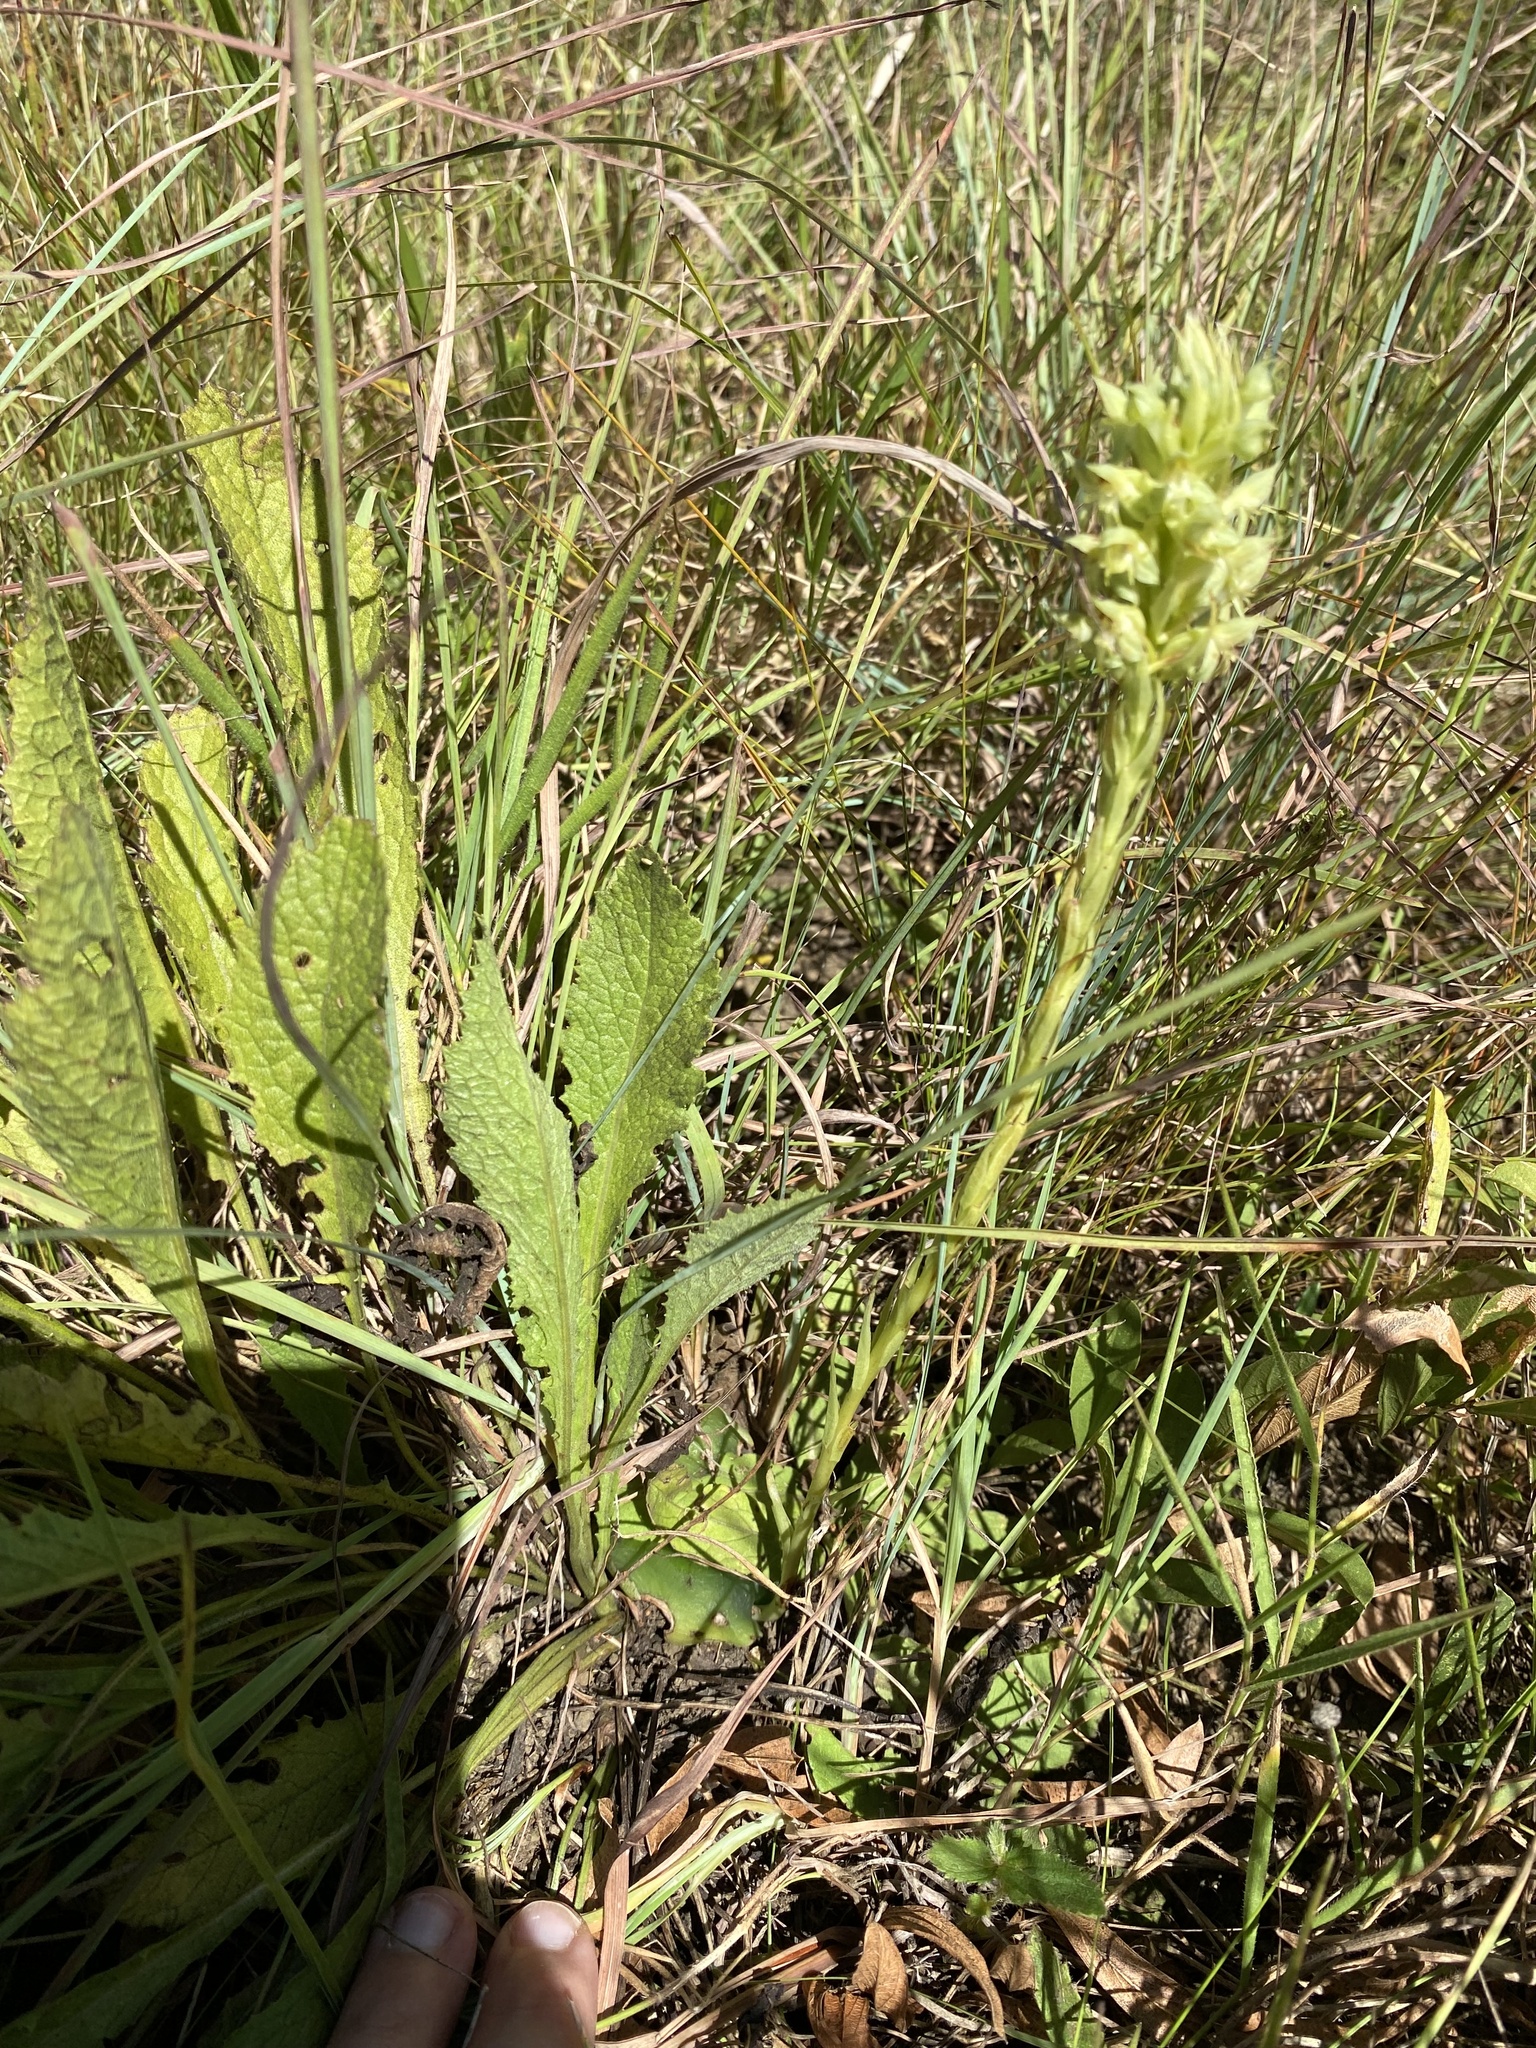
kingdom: Plantae
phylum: Tracheophyta
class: Liliopsida
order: Asparagales
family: Orchidaceae
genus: Habenaria
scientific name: Habenaria dregeana
